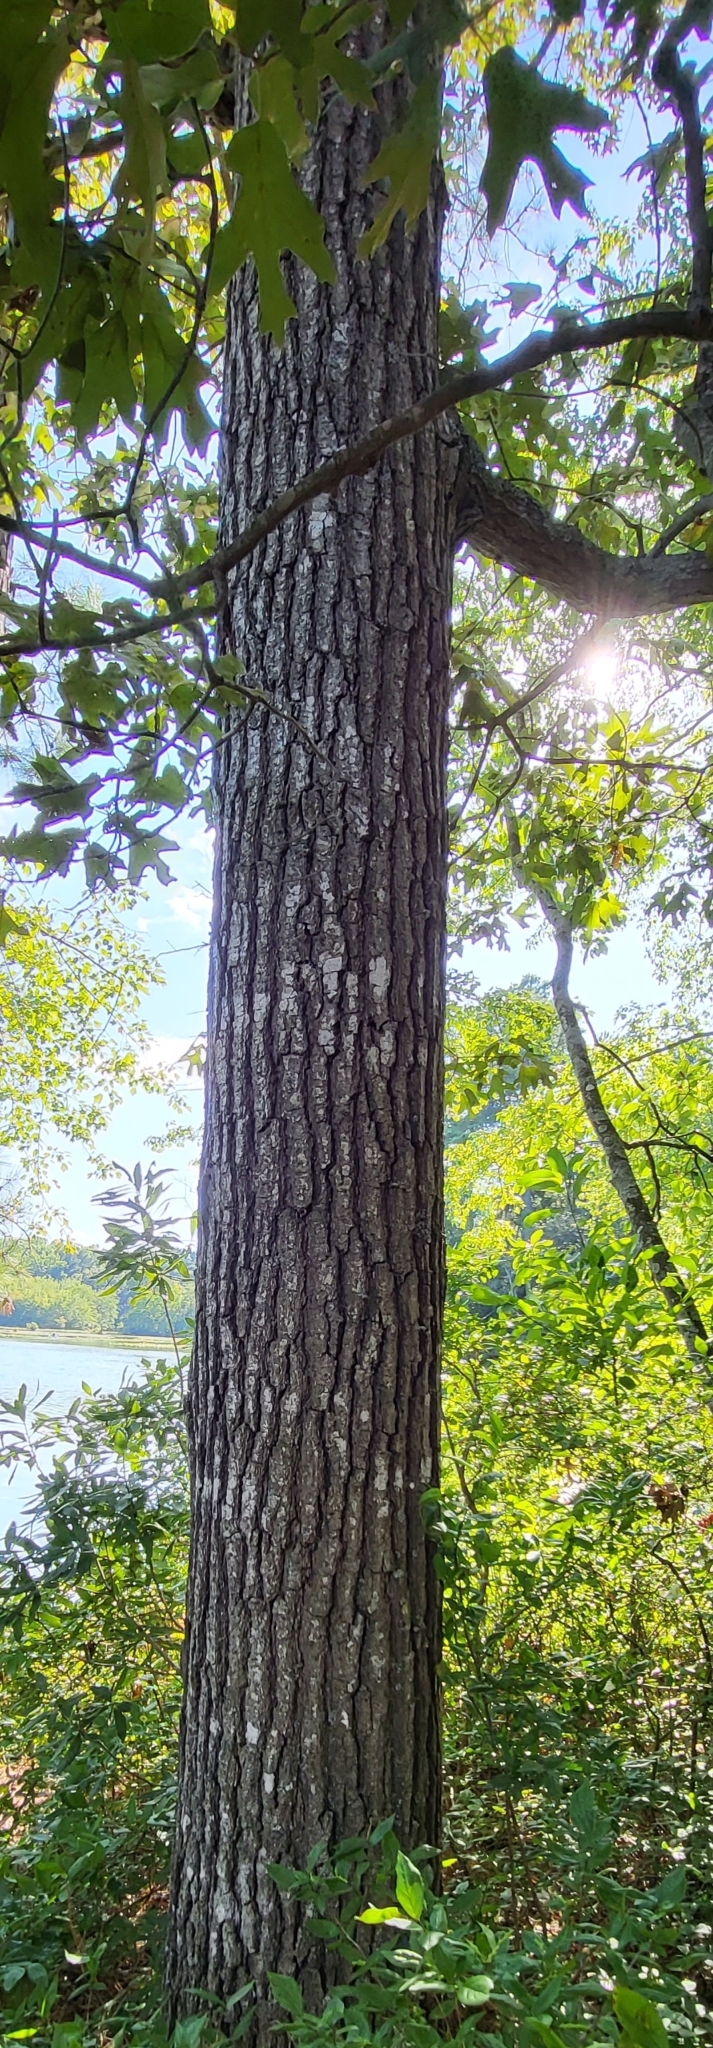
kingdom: Plantae
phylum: Tracheophyta
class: Magnoliopsida
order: Fagales
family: Fagaceae
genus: Quercus
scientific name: Quercus falcata
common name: Southern red oak
